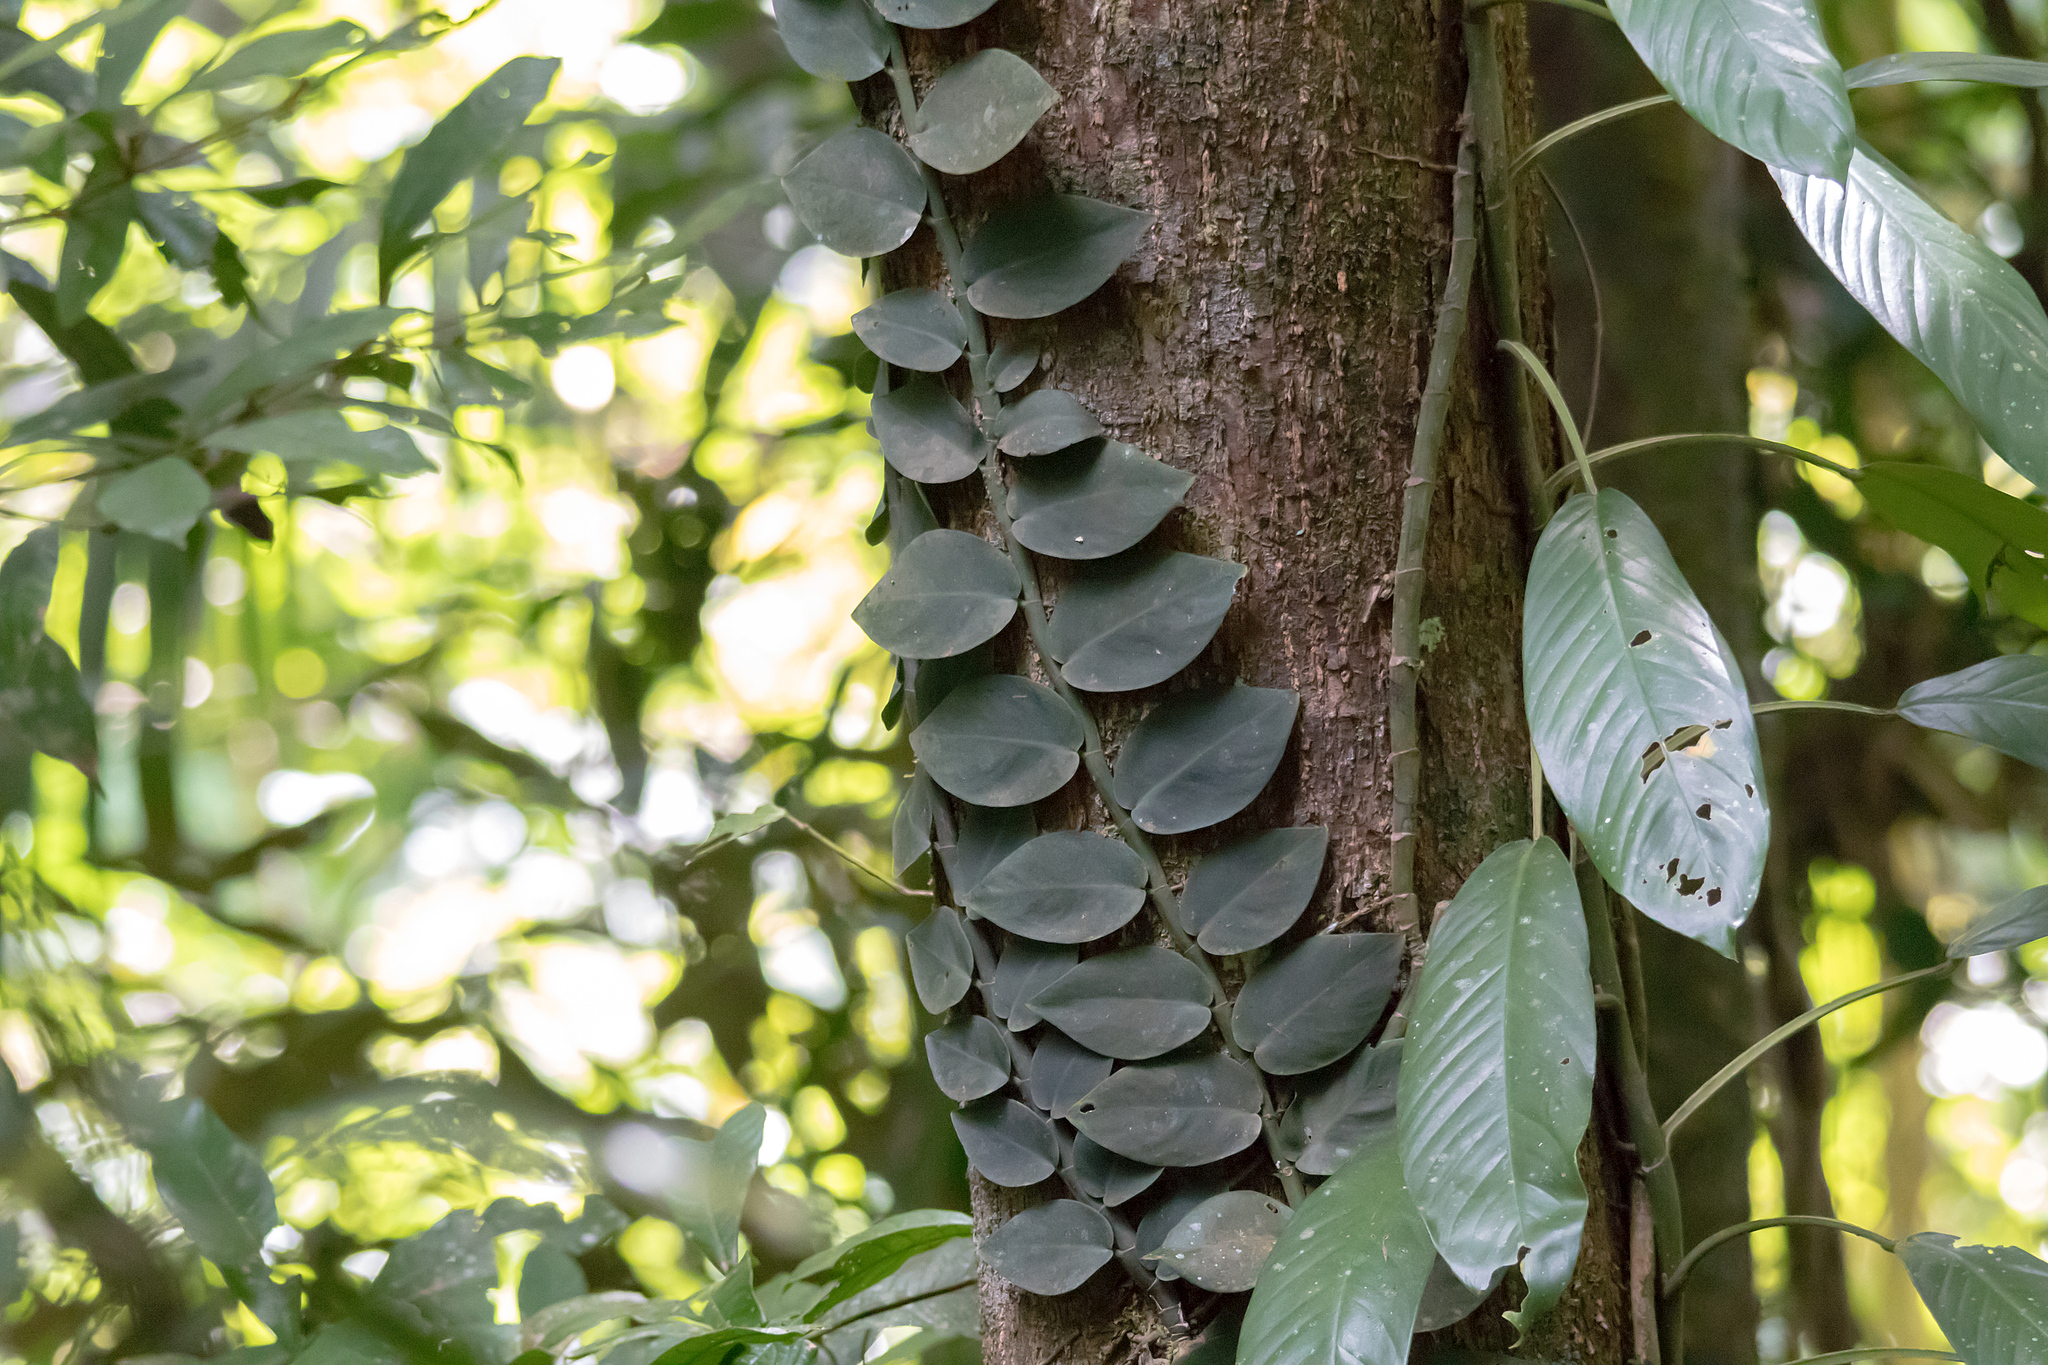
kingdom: Plantae
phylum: Tracheophyta
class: Liliopsida
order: Alismatales
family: Araceae
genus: Rhaphidophora
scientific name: Rhaphidophora hayi
